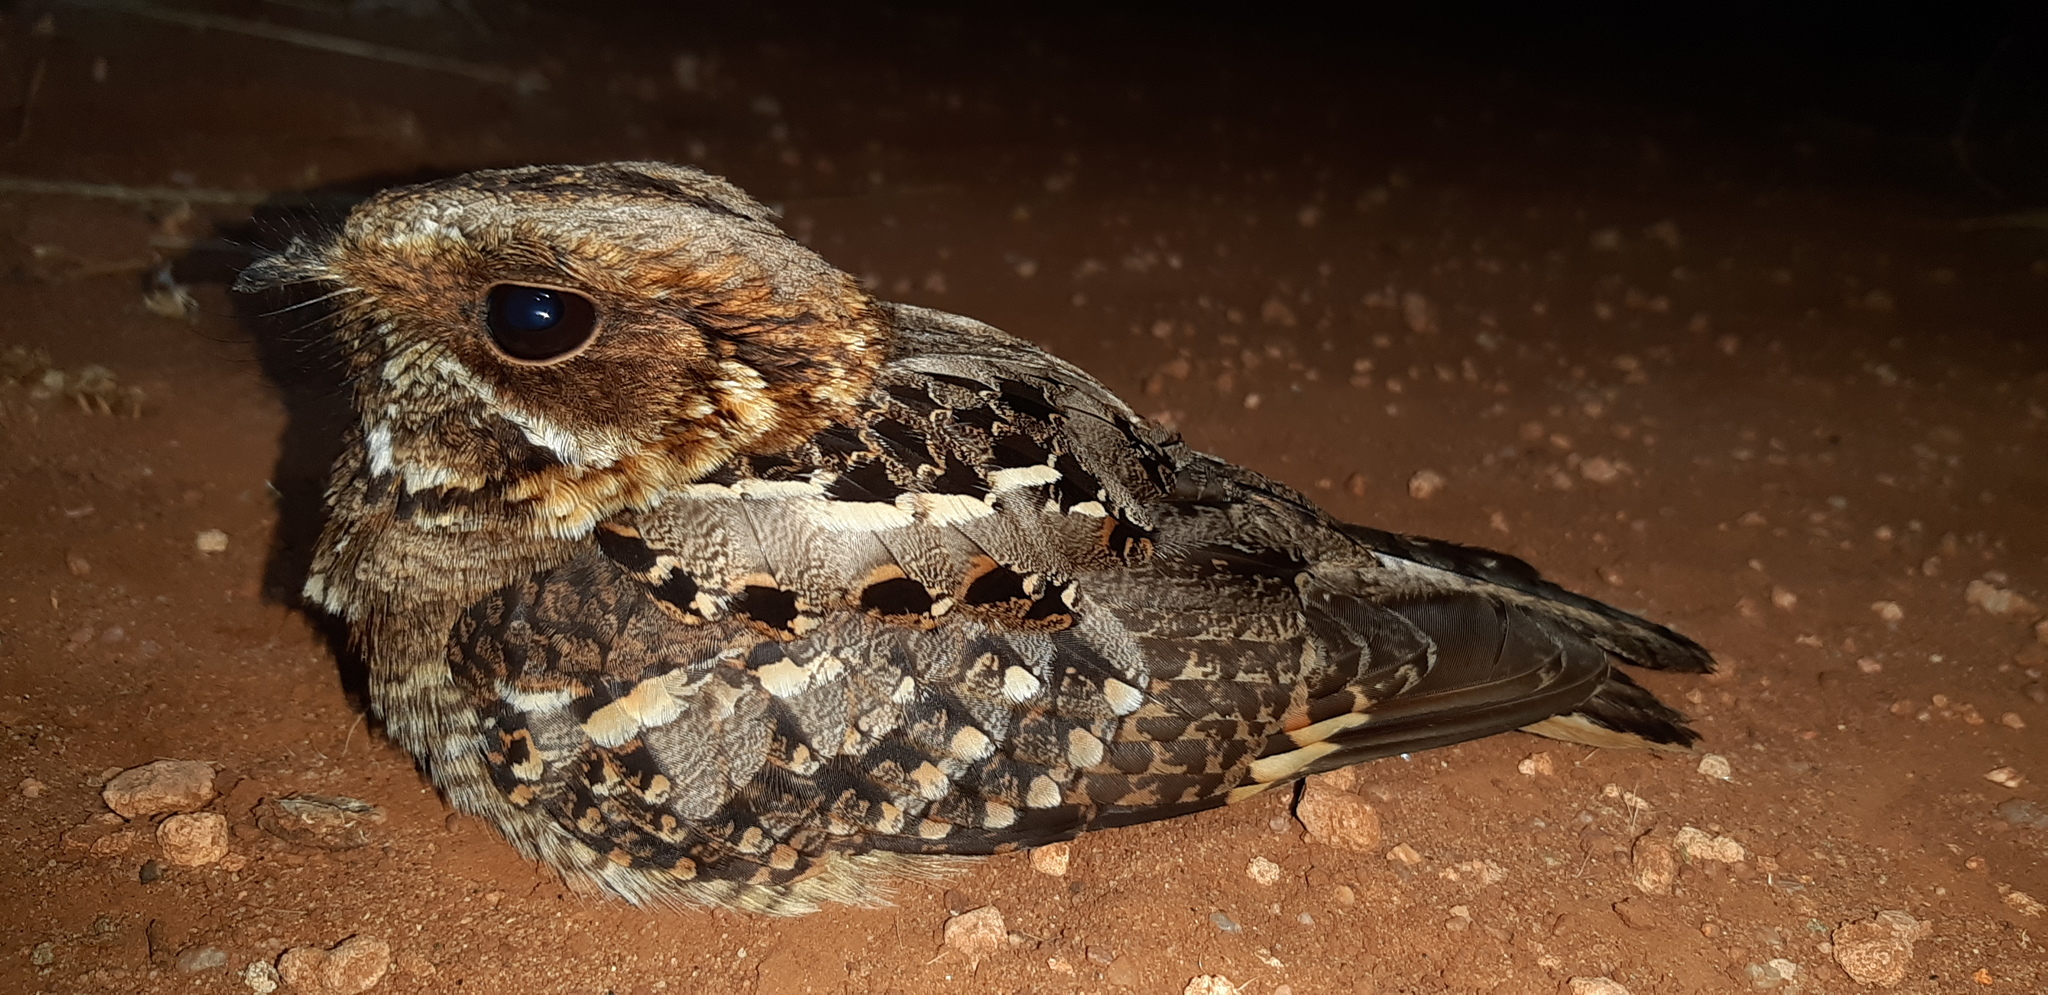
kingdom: Animalia
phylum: Chordata
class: Aves
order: Caprimulgiformes
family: Caprimulgidae
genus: Caprimulgus
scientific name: Caprimulgus pectoralis
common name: Fiery-necked nightjar
